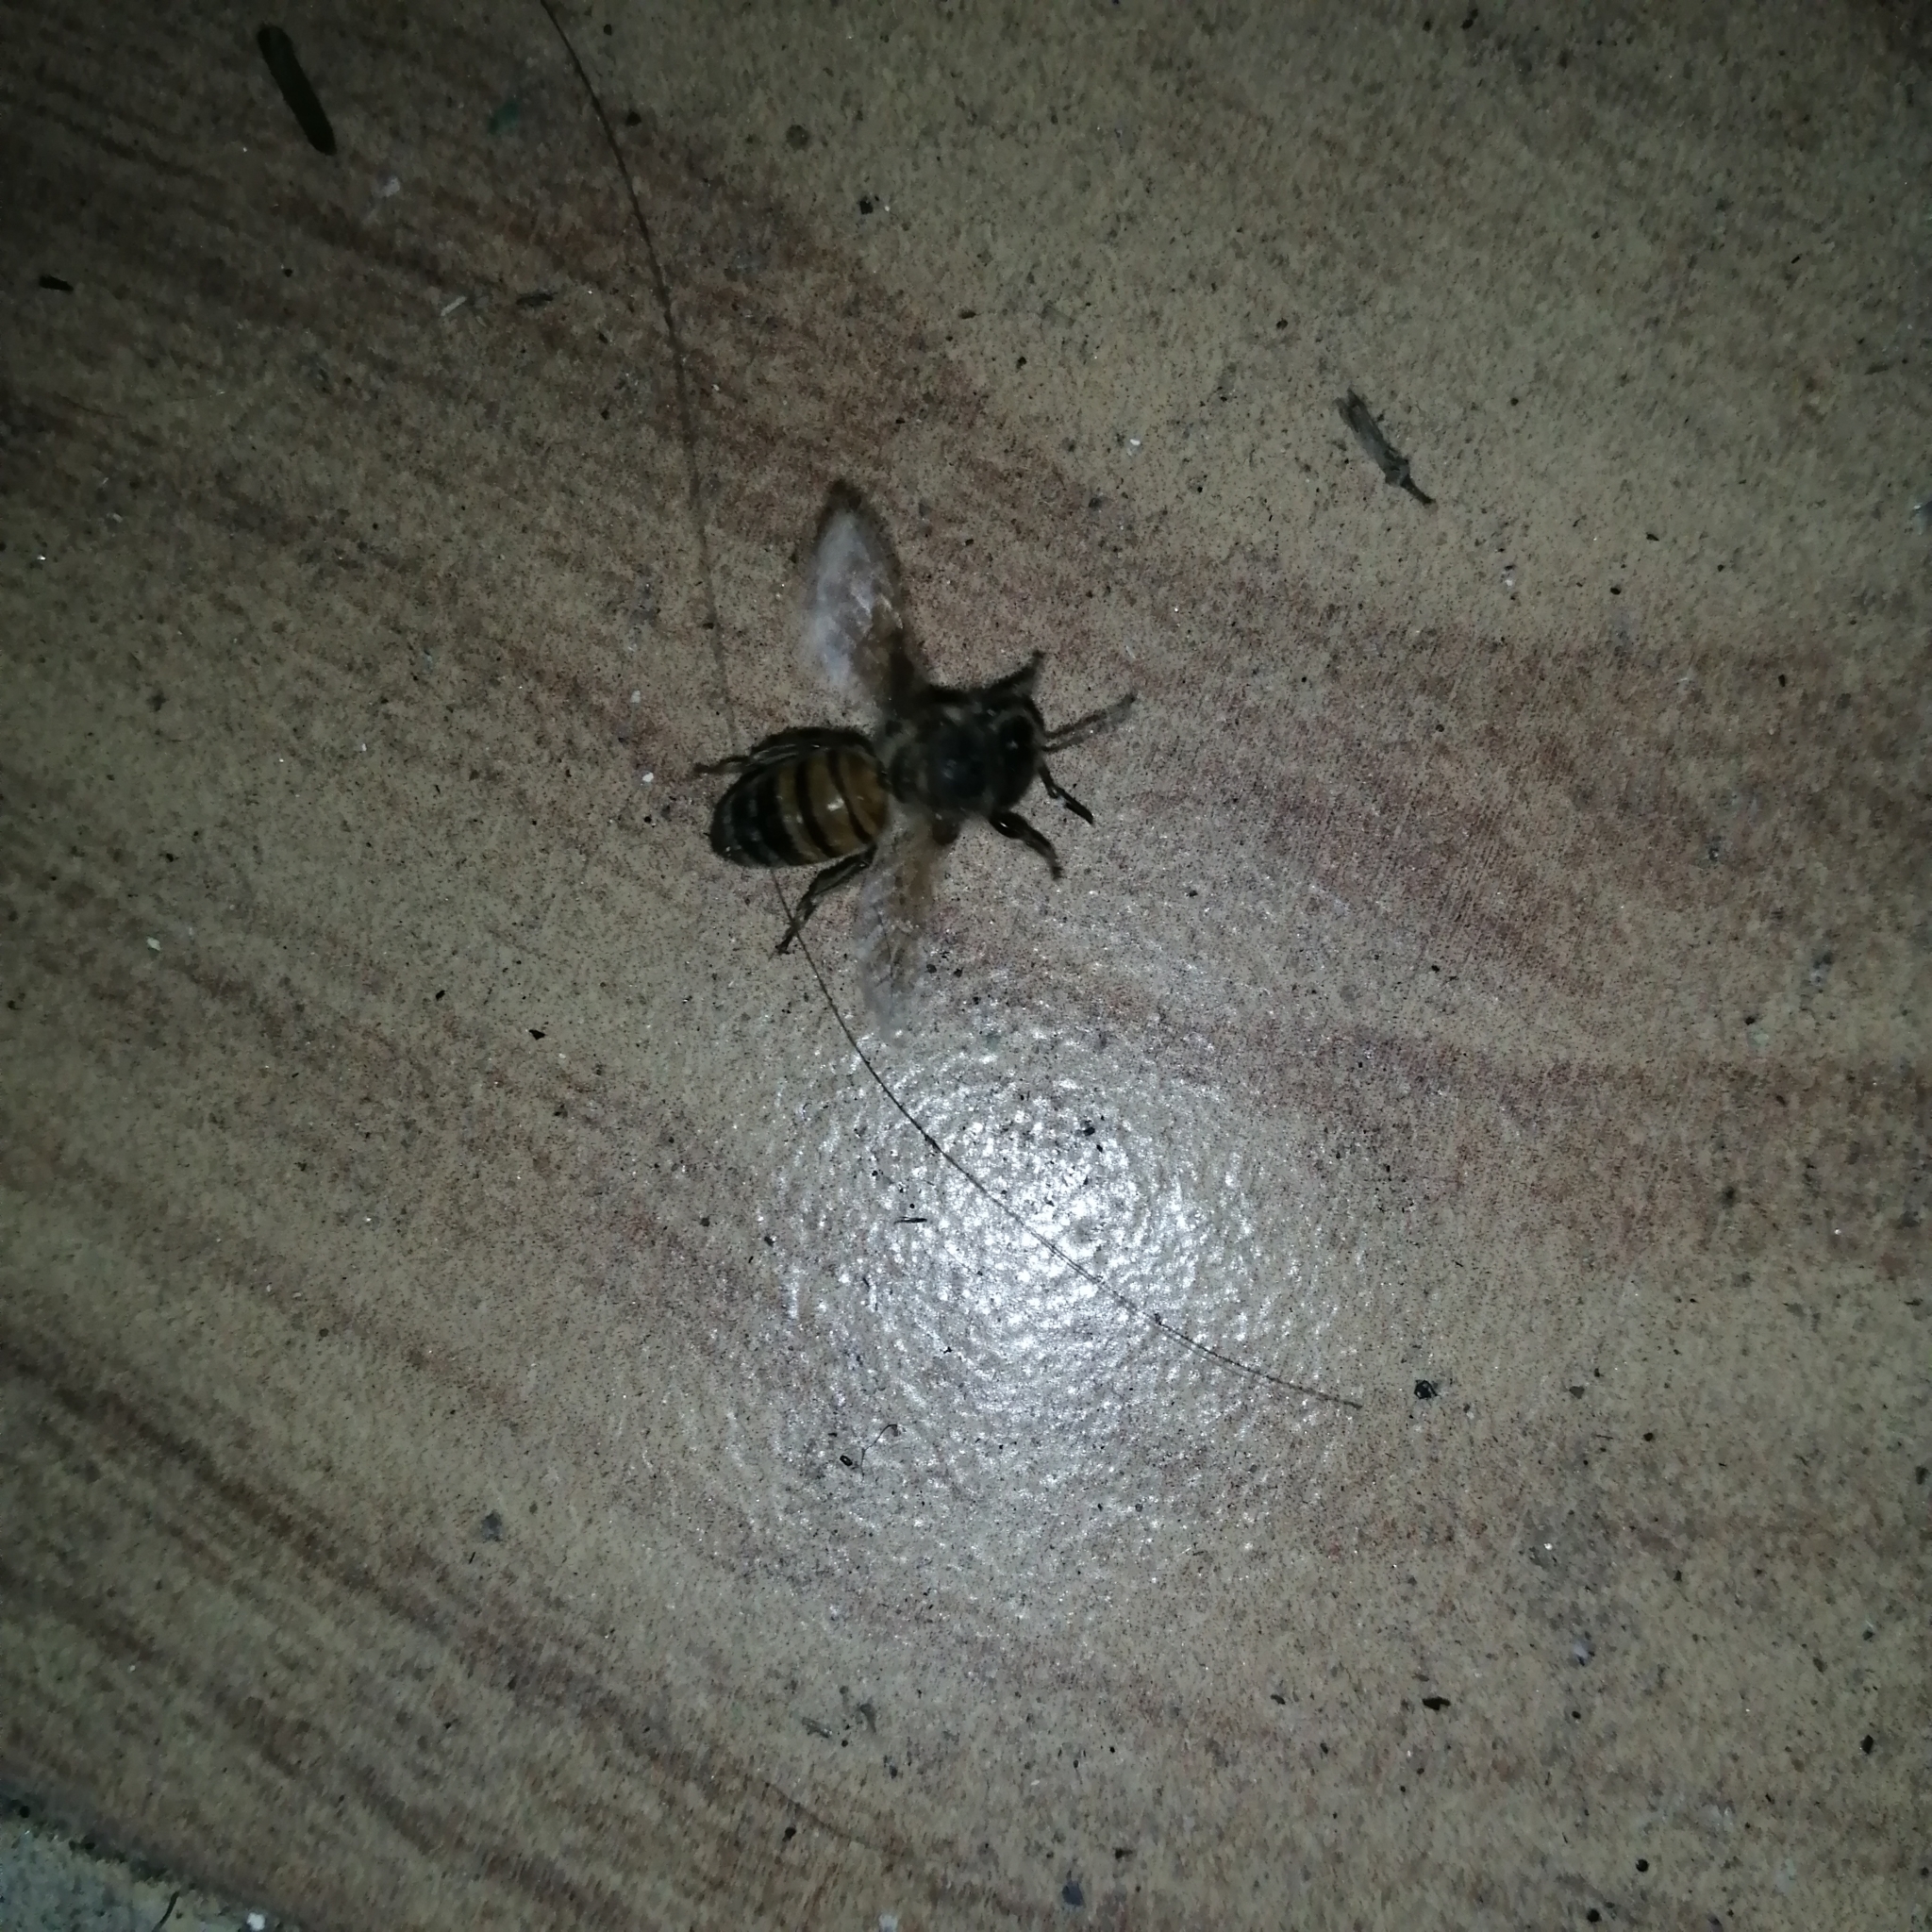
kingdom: Animalia
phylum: Arthropoda
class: Insecta
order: Hymenoptera
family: Apidae
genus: Apis
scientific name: Apis mellifera
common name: Honey bee
